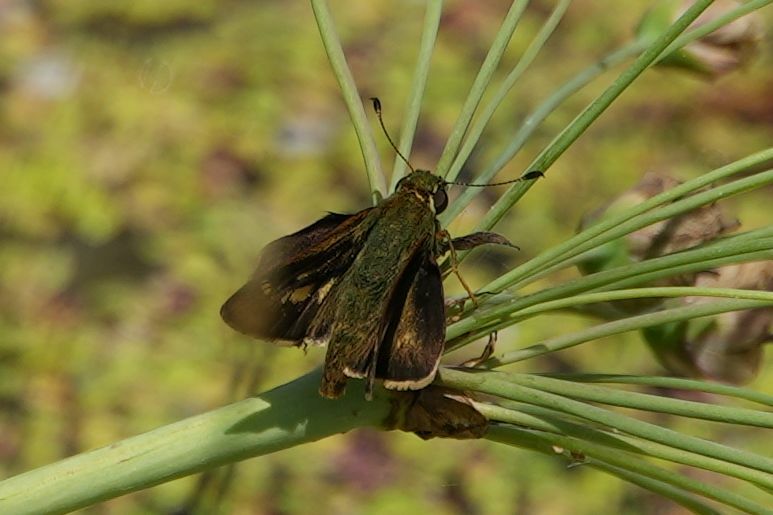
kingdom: Animalia
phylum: Arthropoda
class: Insecta
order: Lepidoptera
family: Hesperiidae
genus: Vernia
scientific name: Vernia verna
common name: Little glassywing
